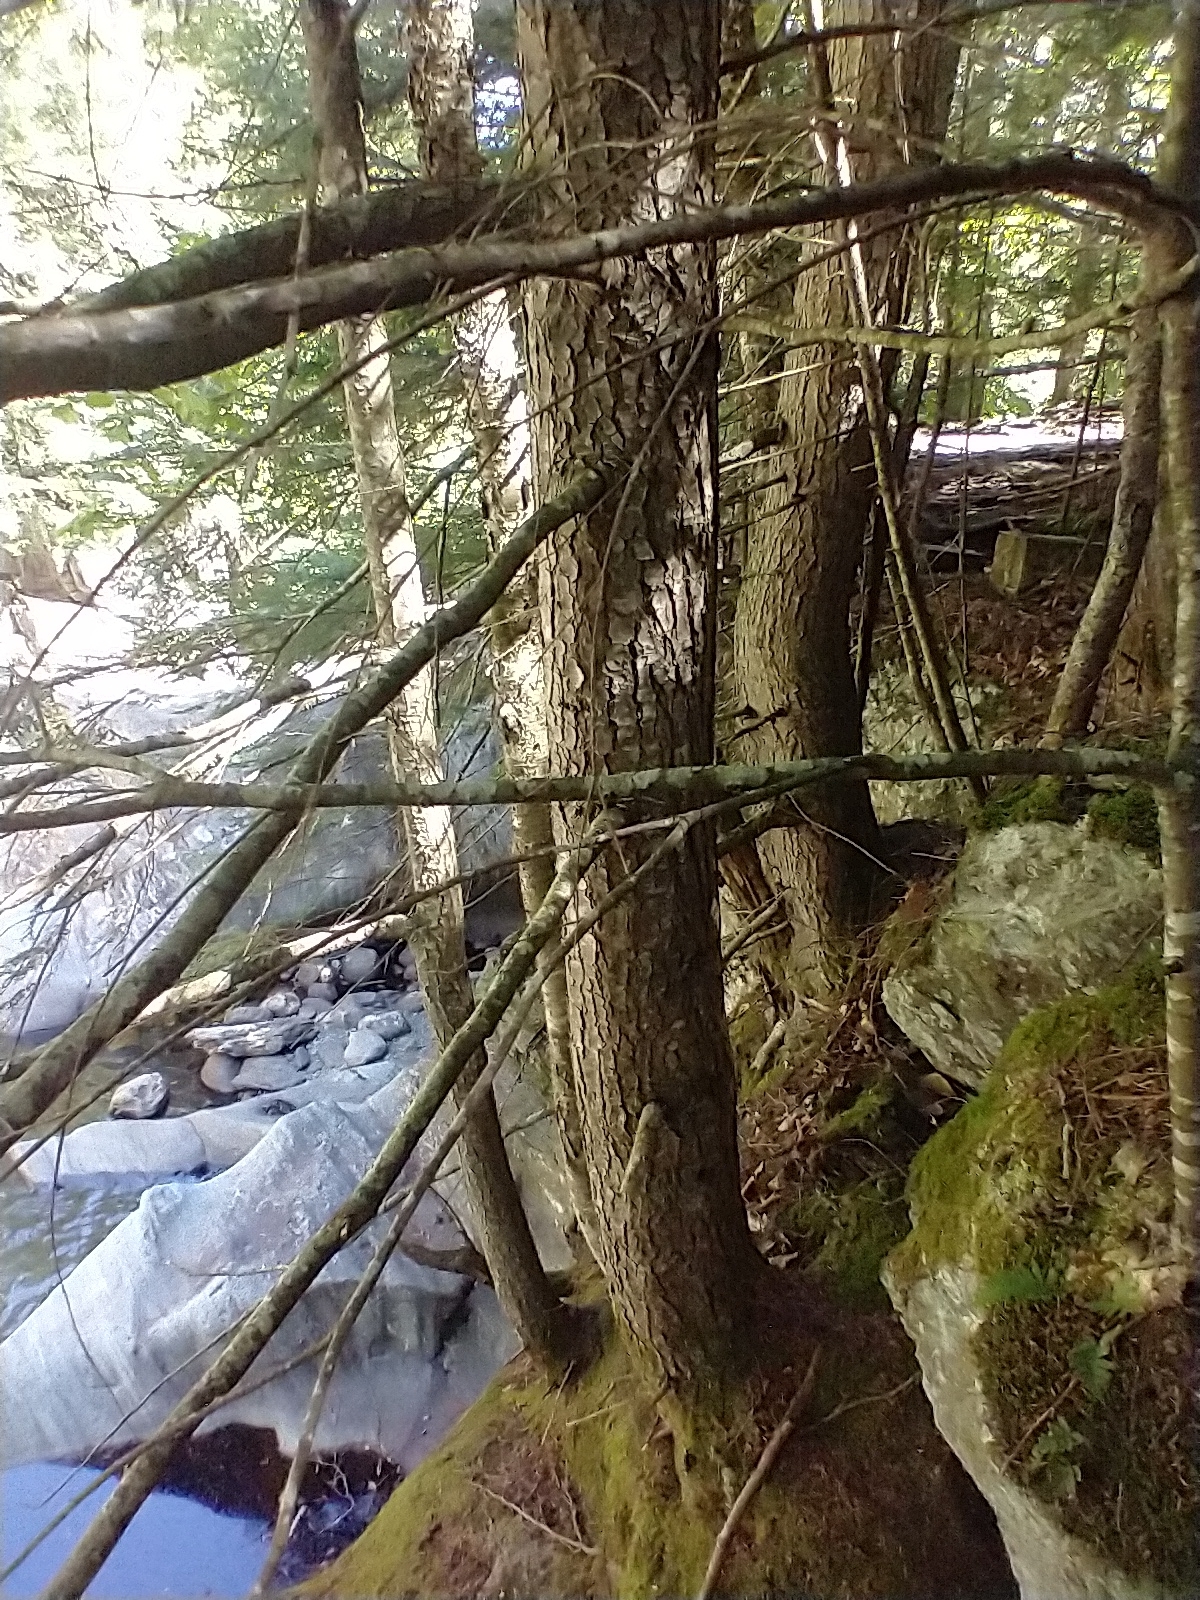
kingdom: Plantae
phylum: Tracheophyta
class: Pinopsida
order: Pinales
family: Pinaceae
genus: Tsuga
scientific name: Tsuga canadensis
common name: Eastern hemlock
